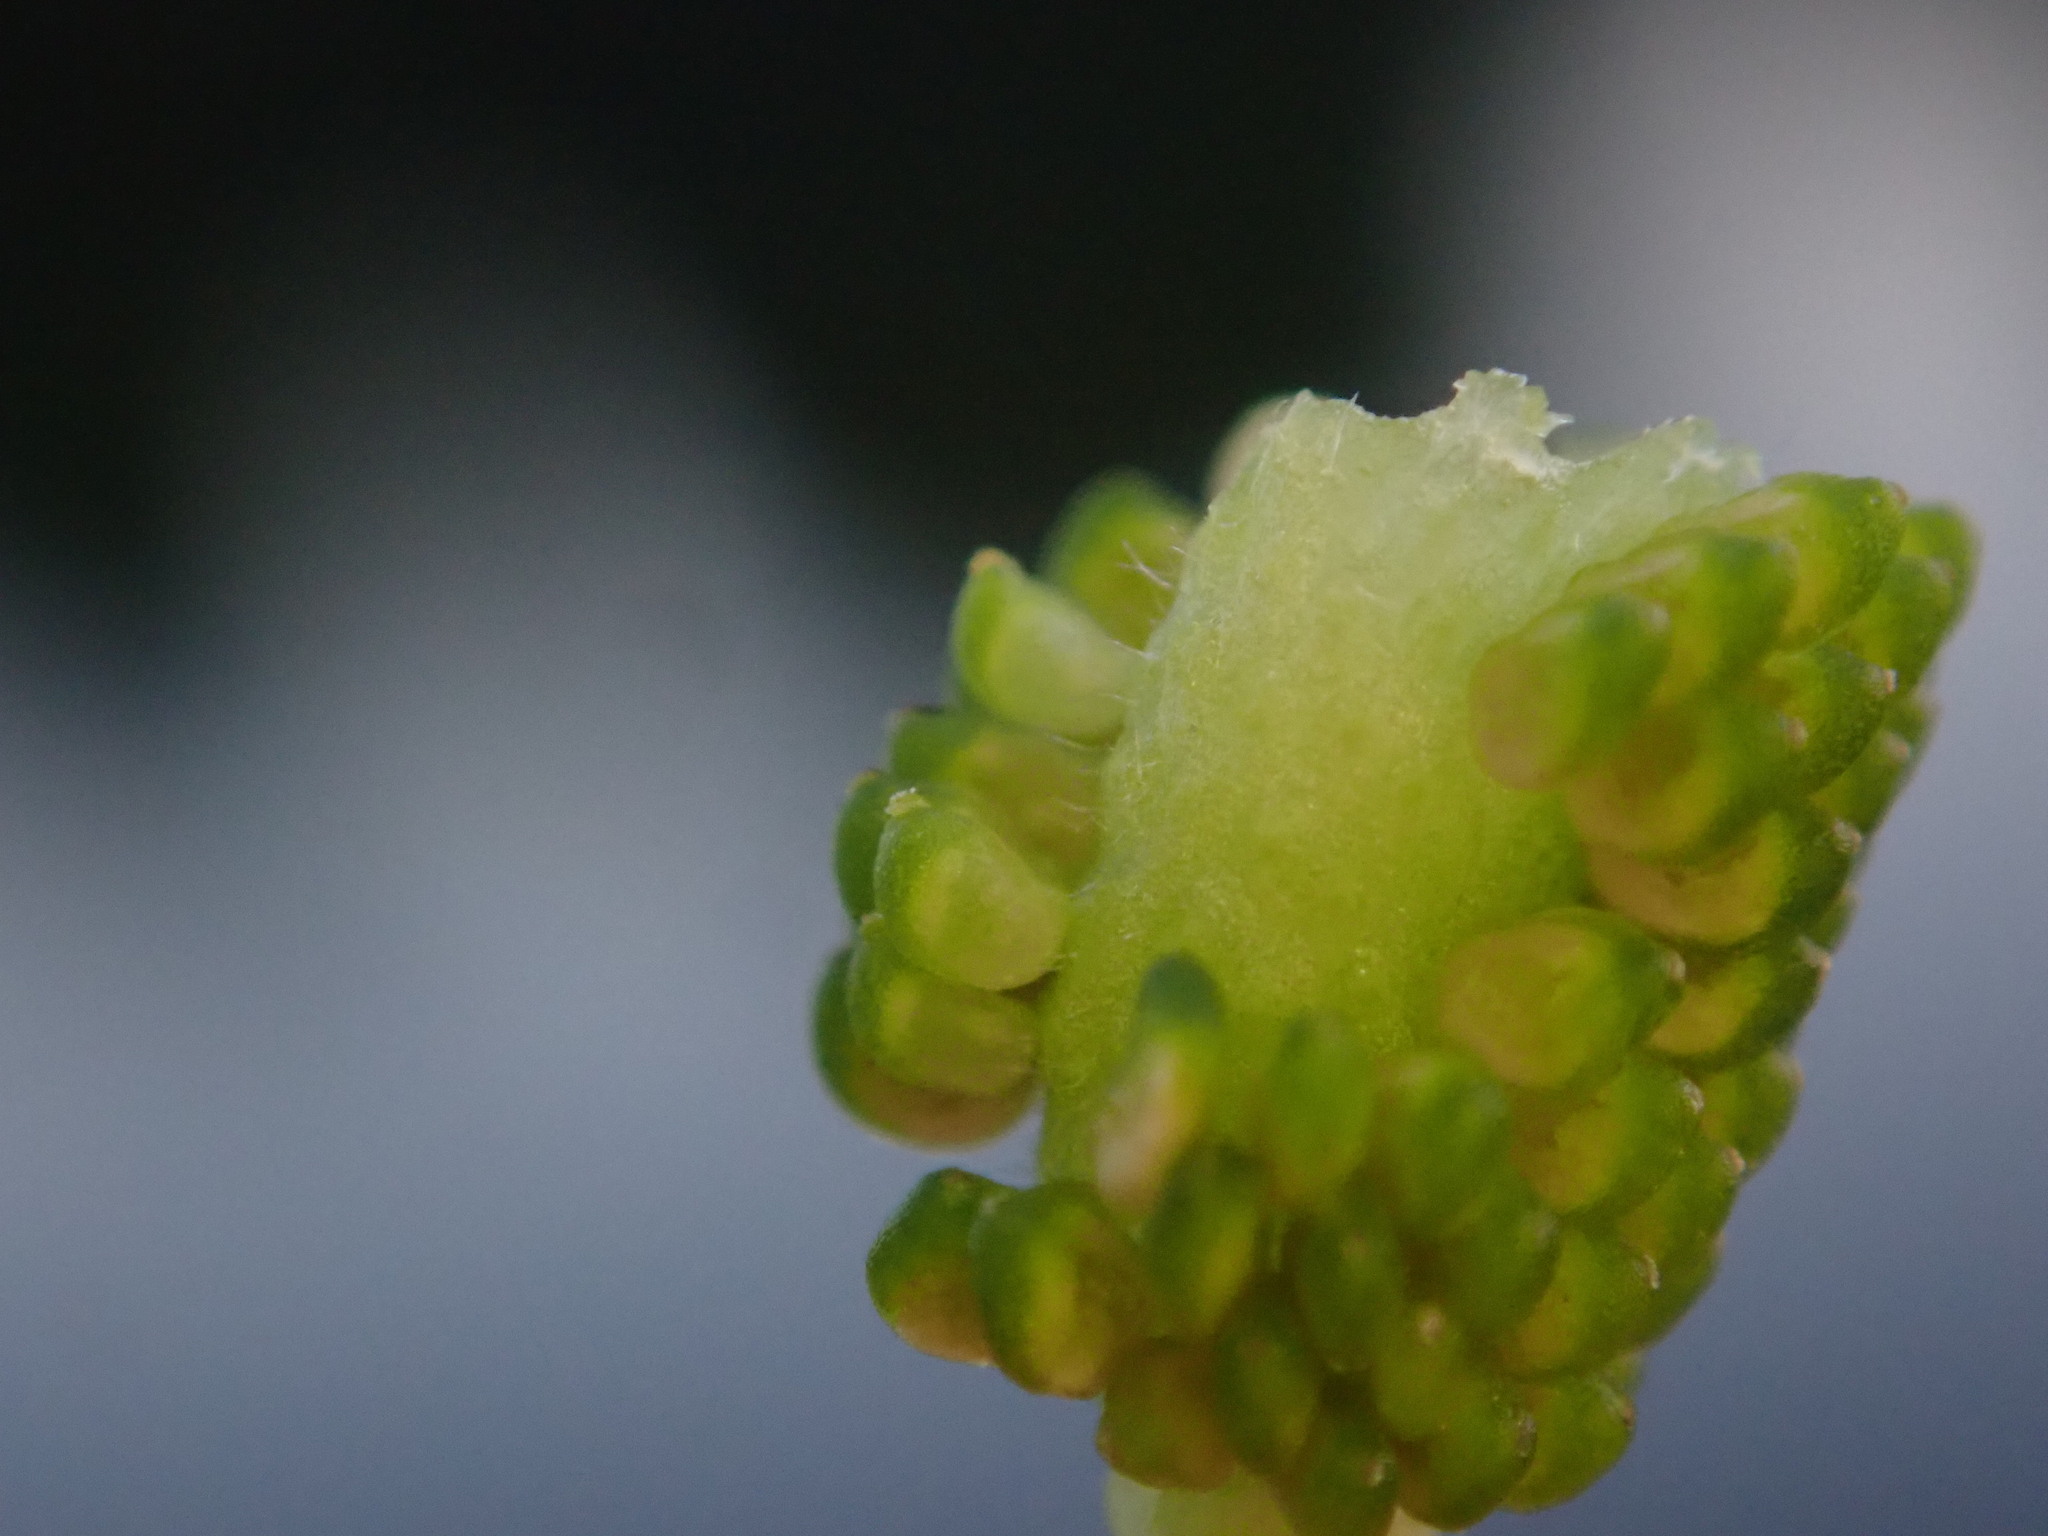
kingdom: Plantae
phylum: Tracheophyta
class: Magnoliopsida
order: Ranunculales
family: Ranunculaceae
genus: Ranunculus
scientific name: Ranunculus sceleratus
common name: Celery-leaved buttercup
